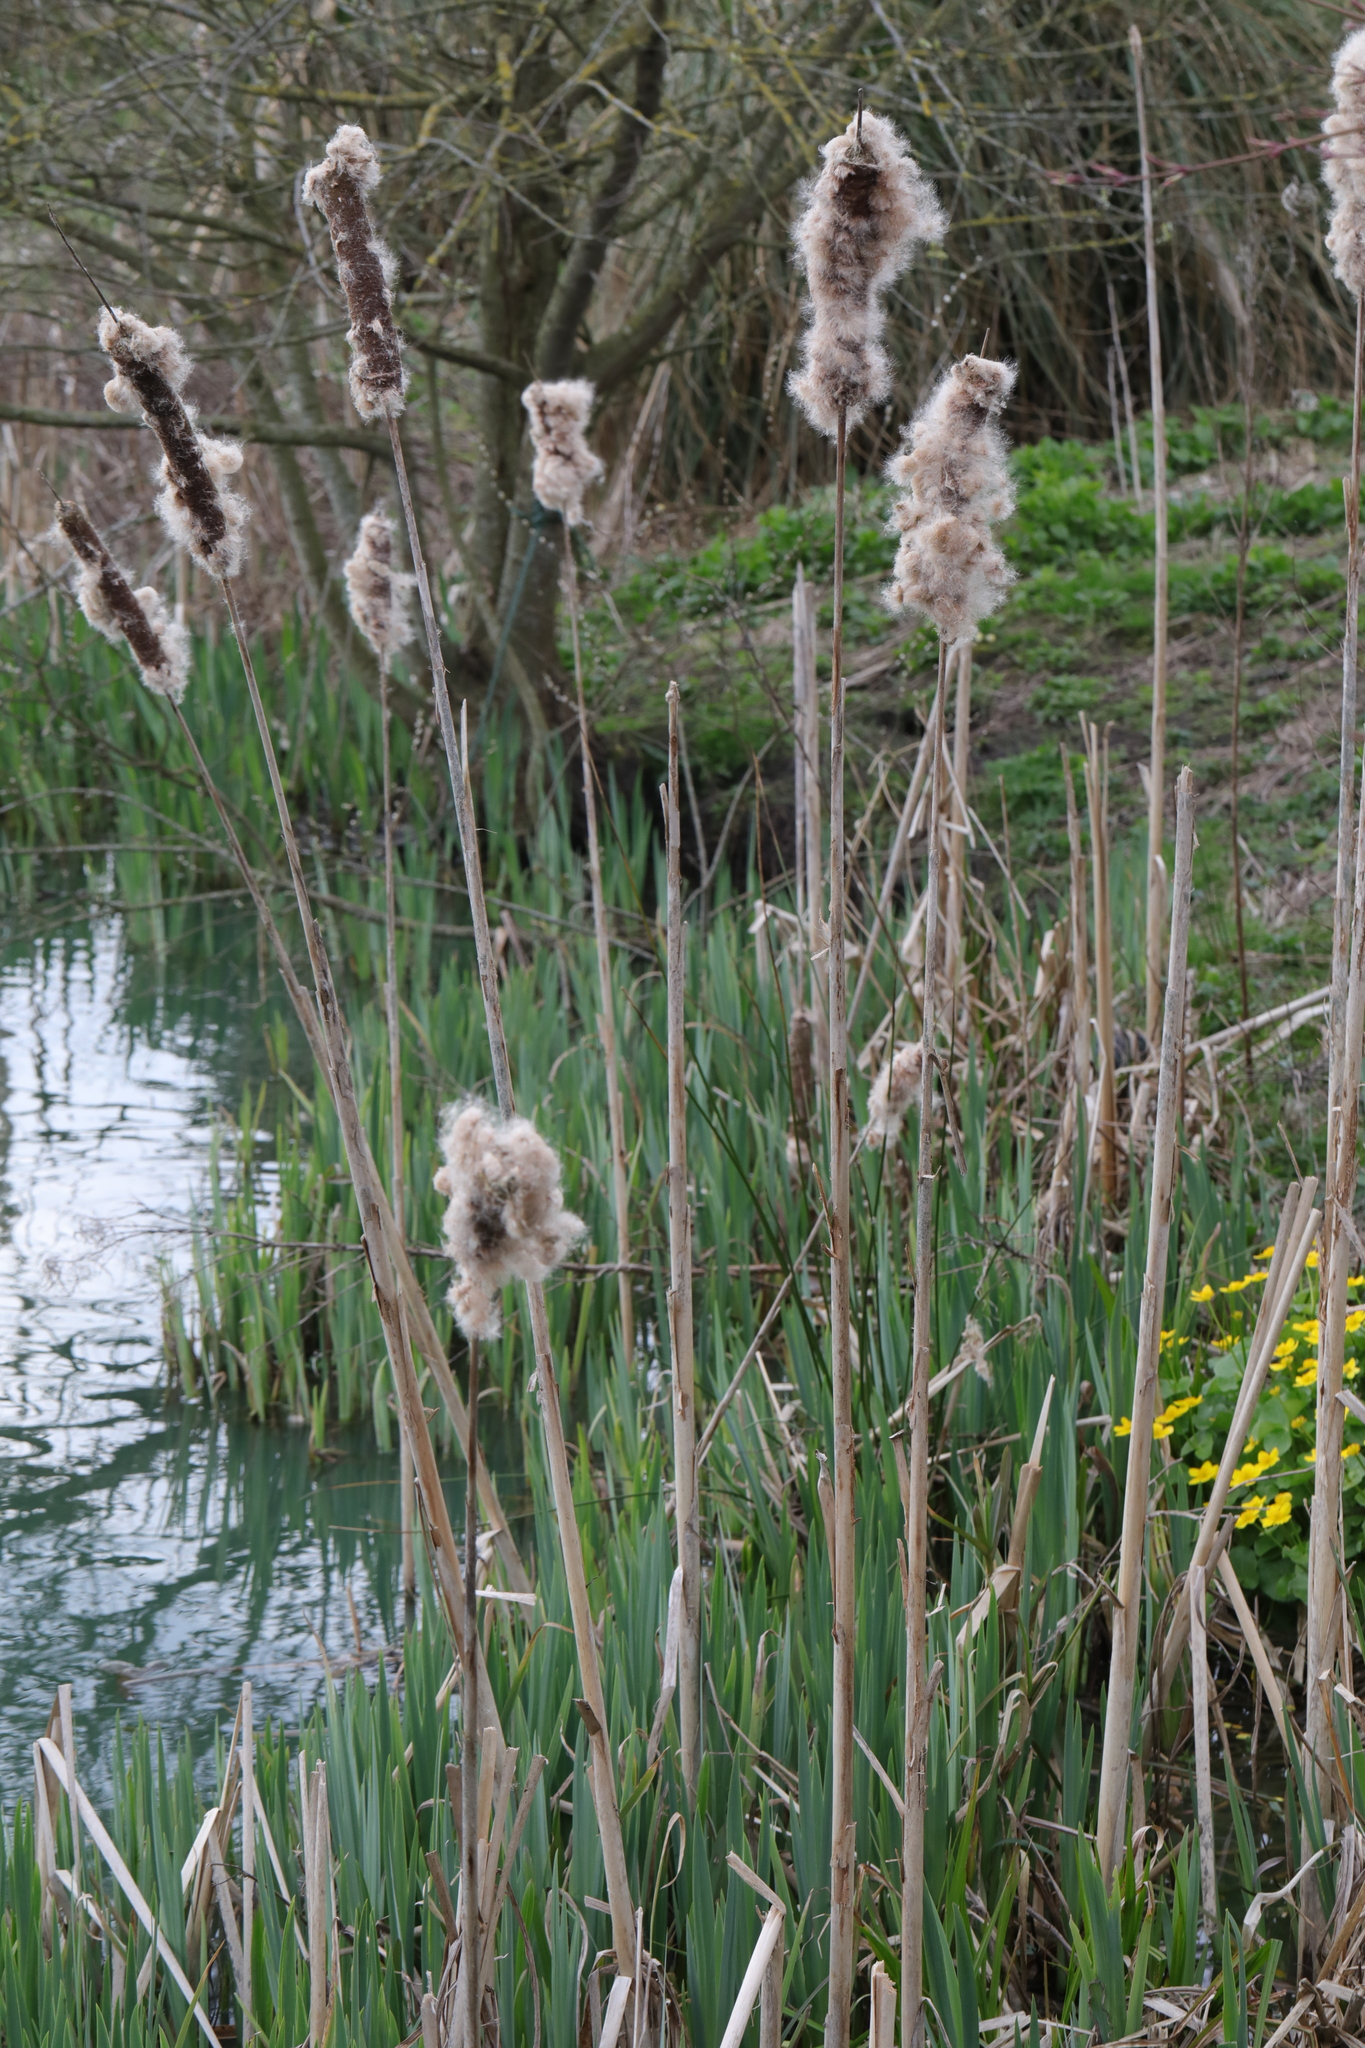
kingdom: Plantae
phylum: Tracheophyta
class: Liliopsida
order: Poales
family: Typhaceae
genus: Typha
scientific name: Typha latifolia
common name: Broadleaf cattail
